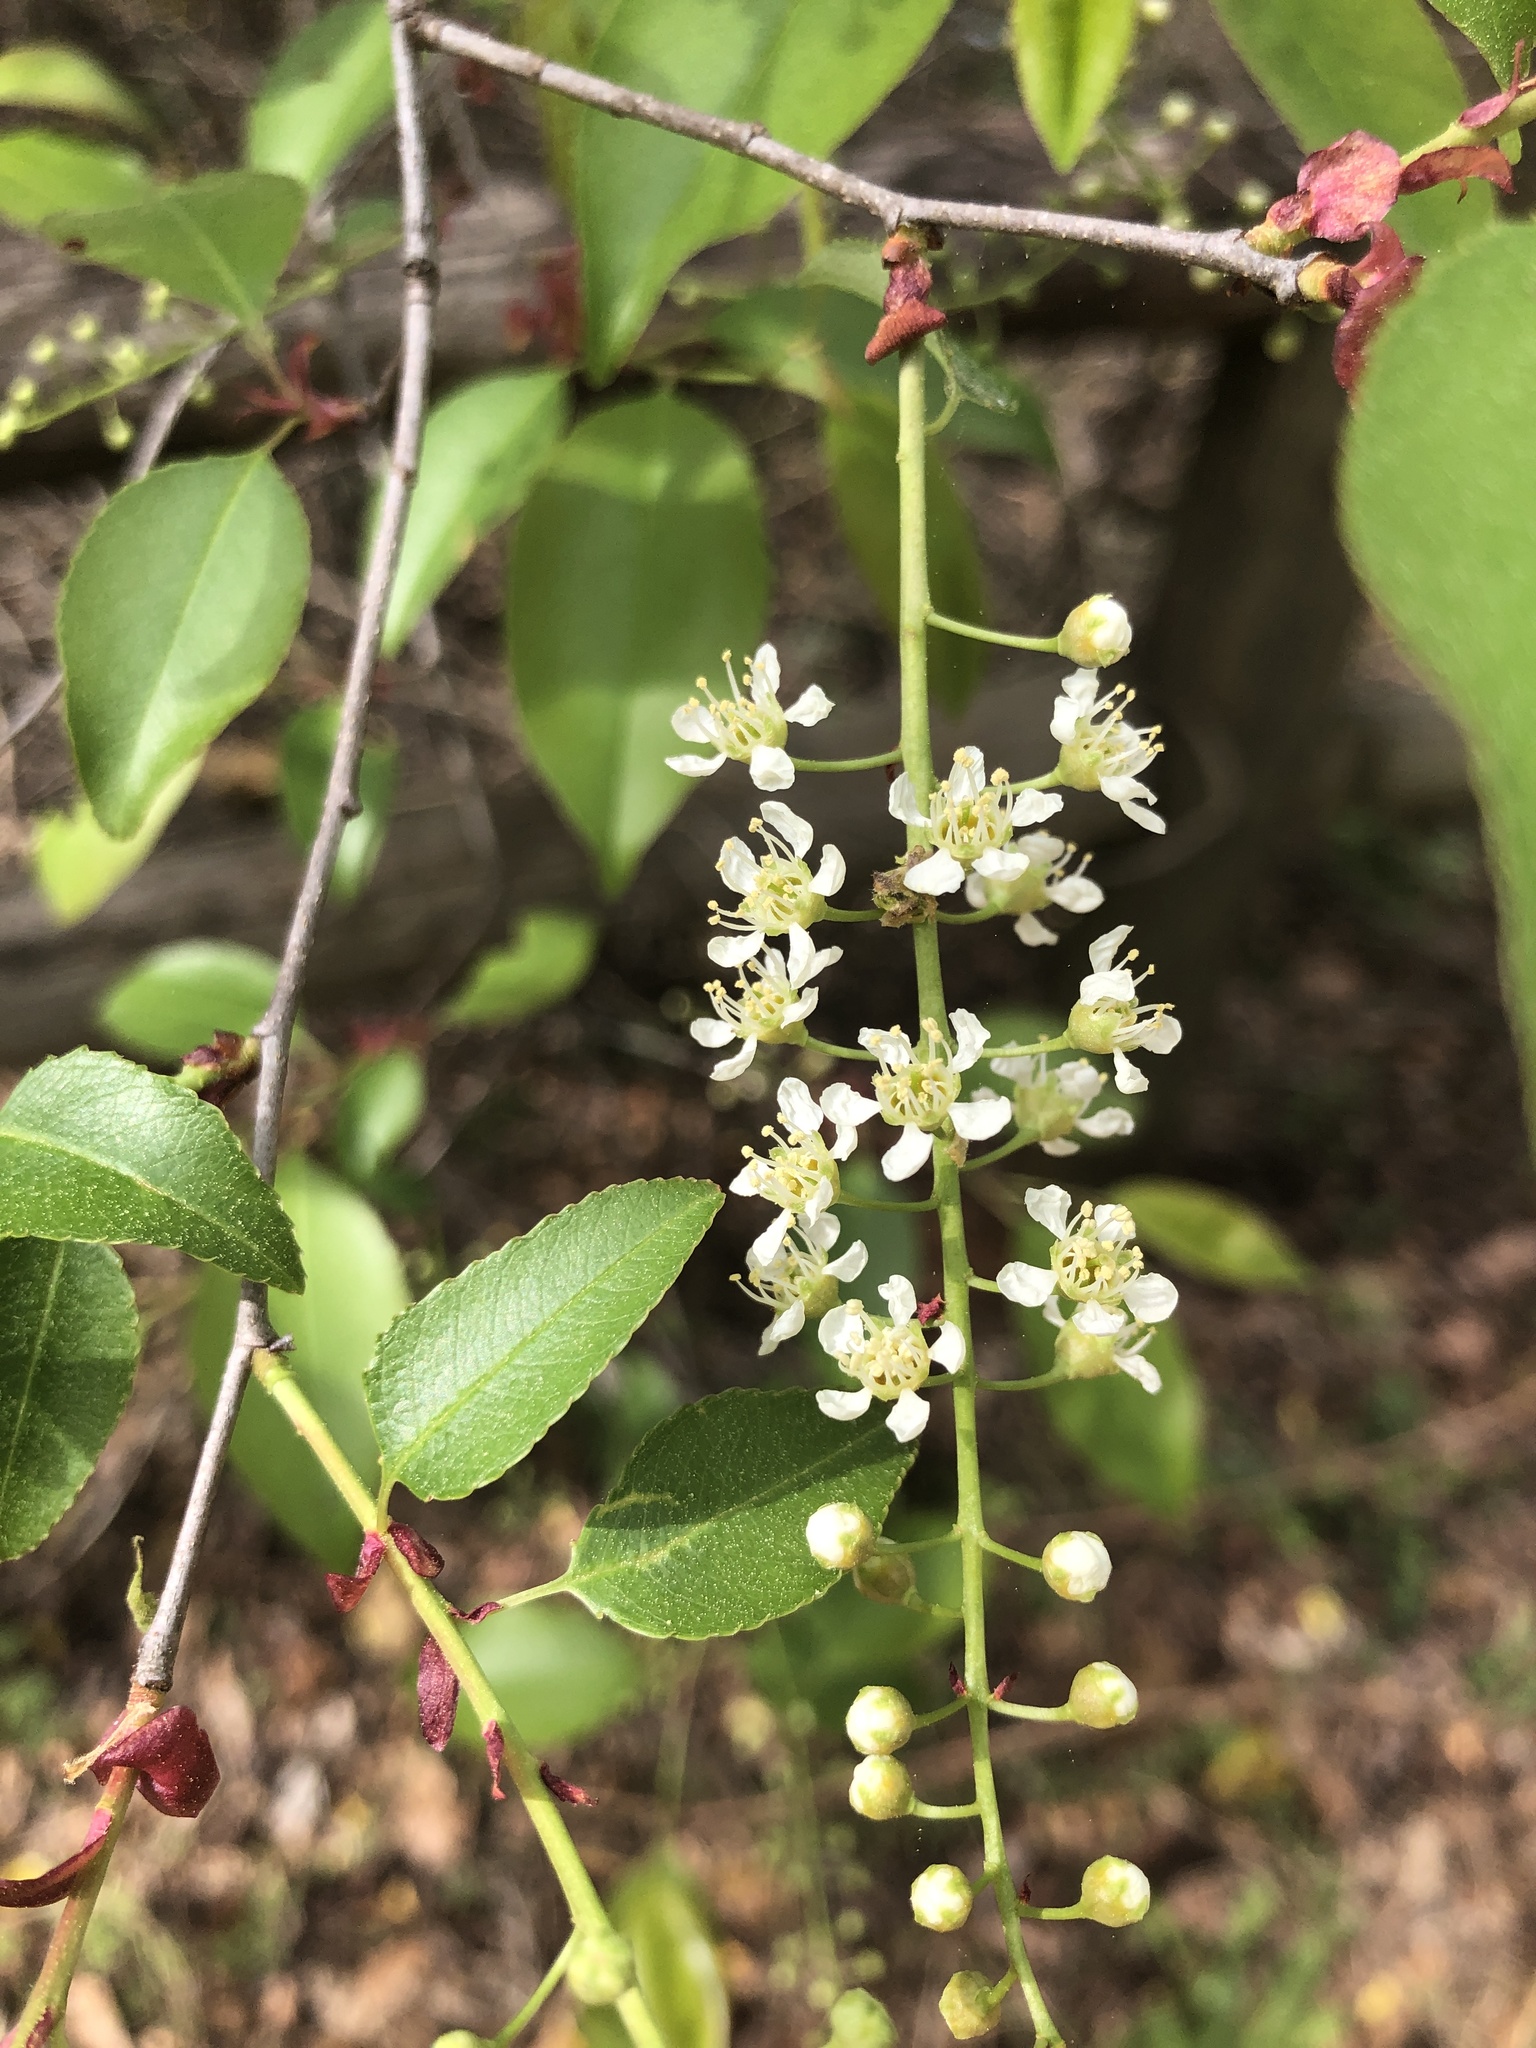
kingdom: Plantae
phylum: Tracheophyta
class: Magnoliopsida
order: Rosales
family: Rosaceae
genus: Prunus
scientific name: Prunus serotina
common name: Black cherry
